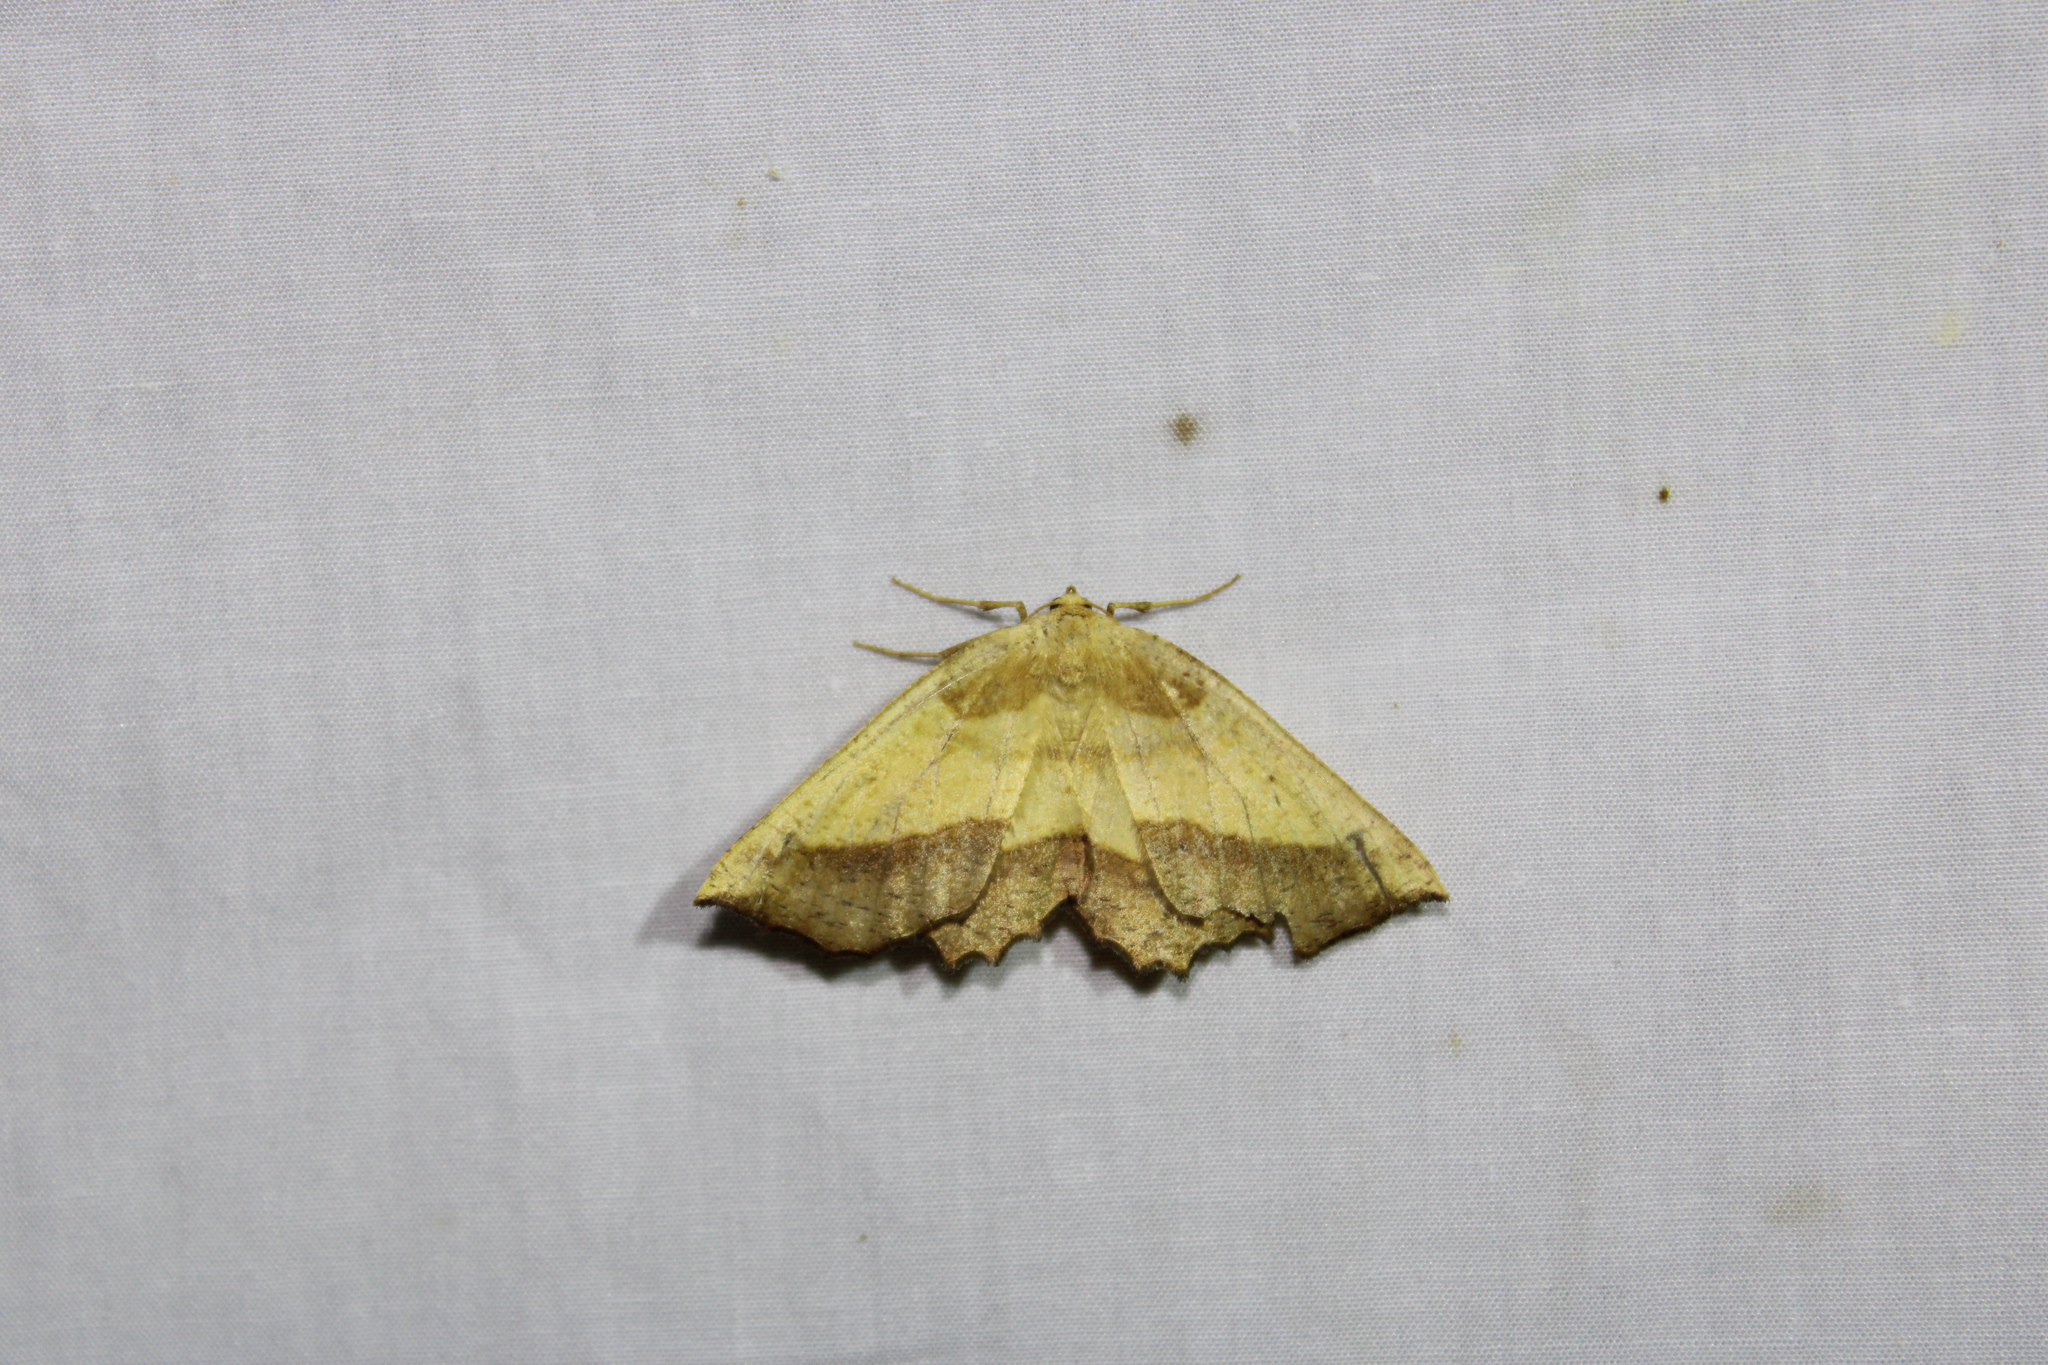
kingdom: Animalia
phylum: Arthropoda
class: Insecta
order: Lepidoptera
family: Geometridae
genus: Euchlaena
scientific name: Euchlaena serrata
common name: Saw wing
